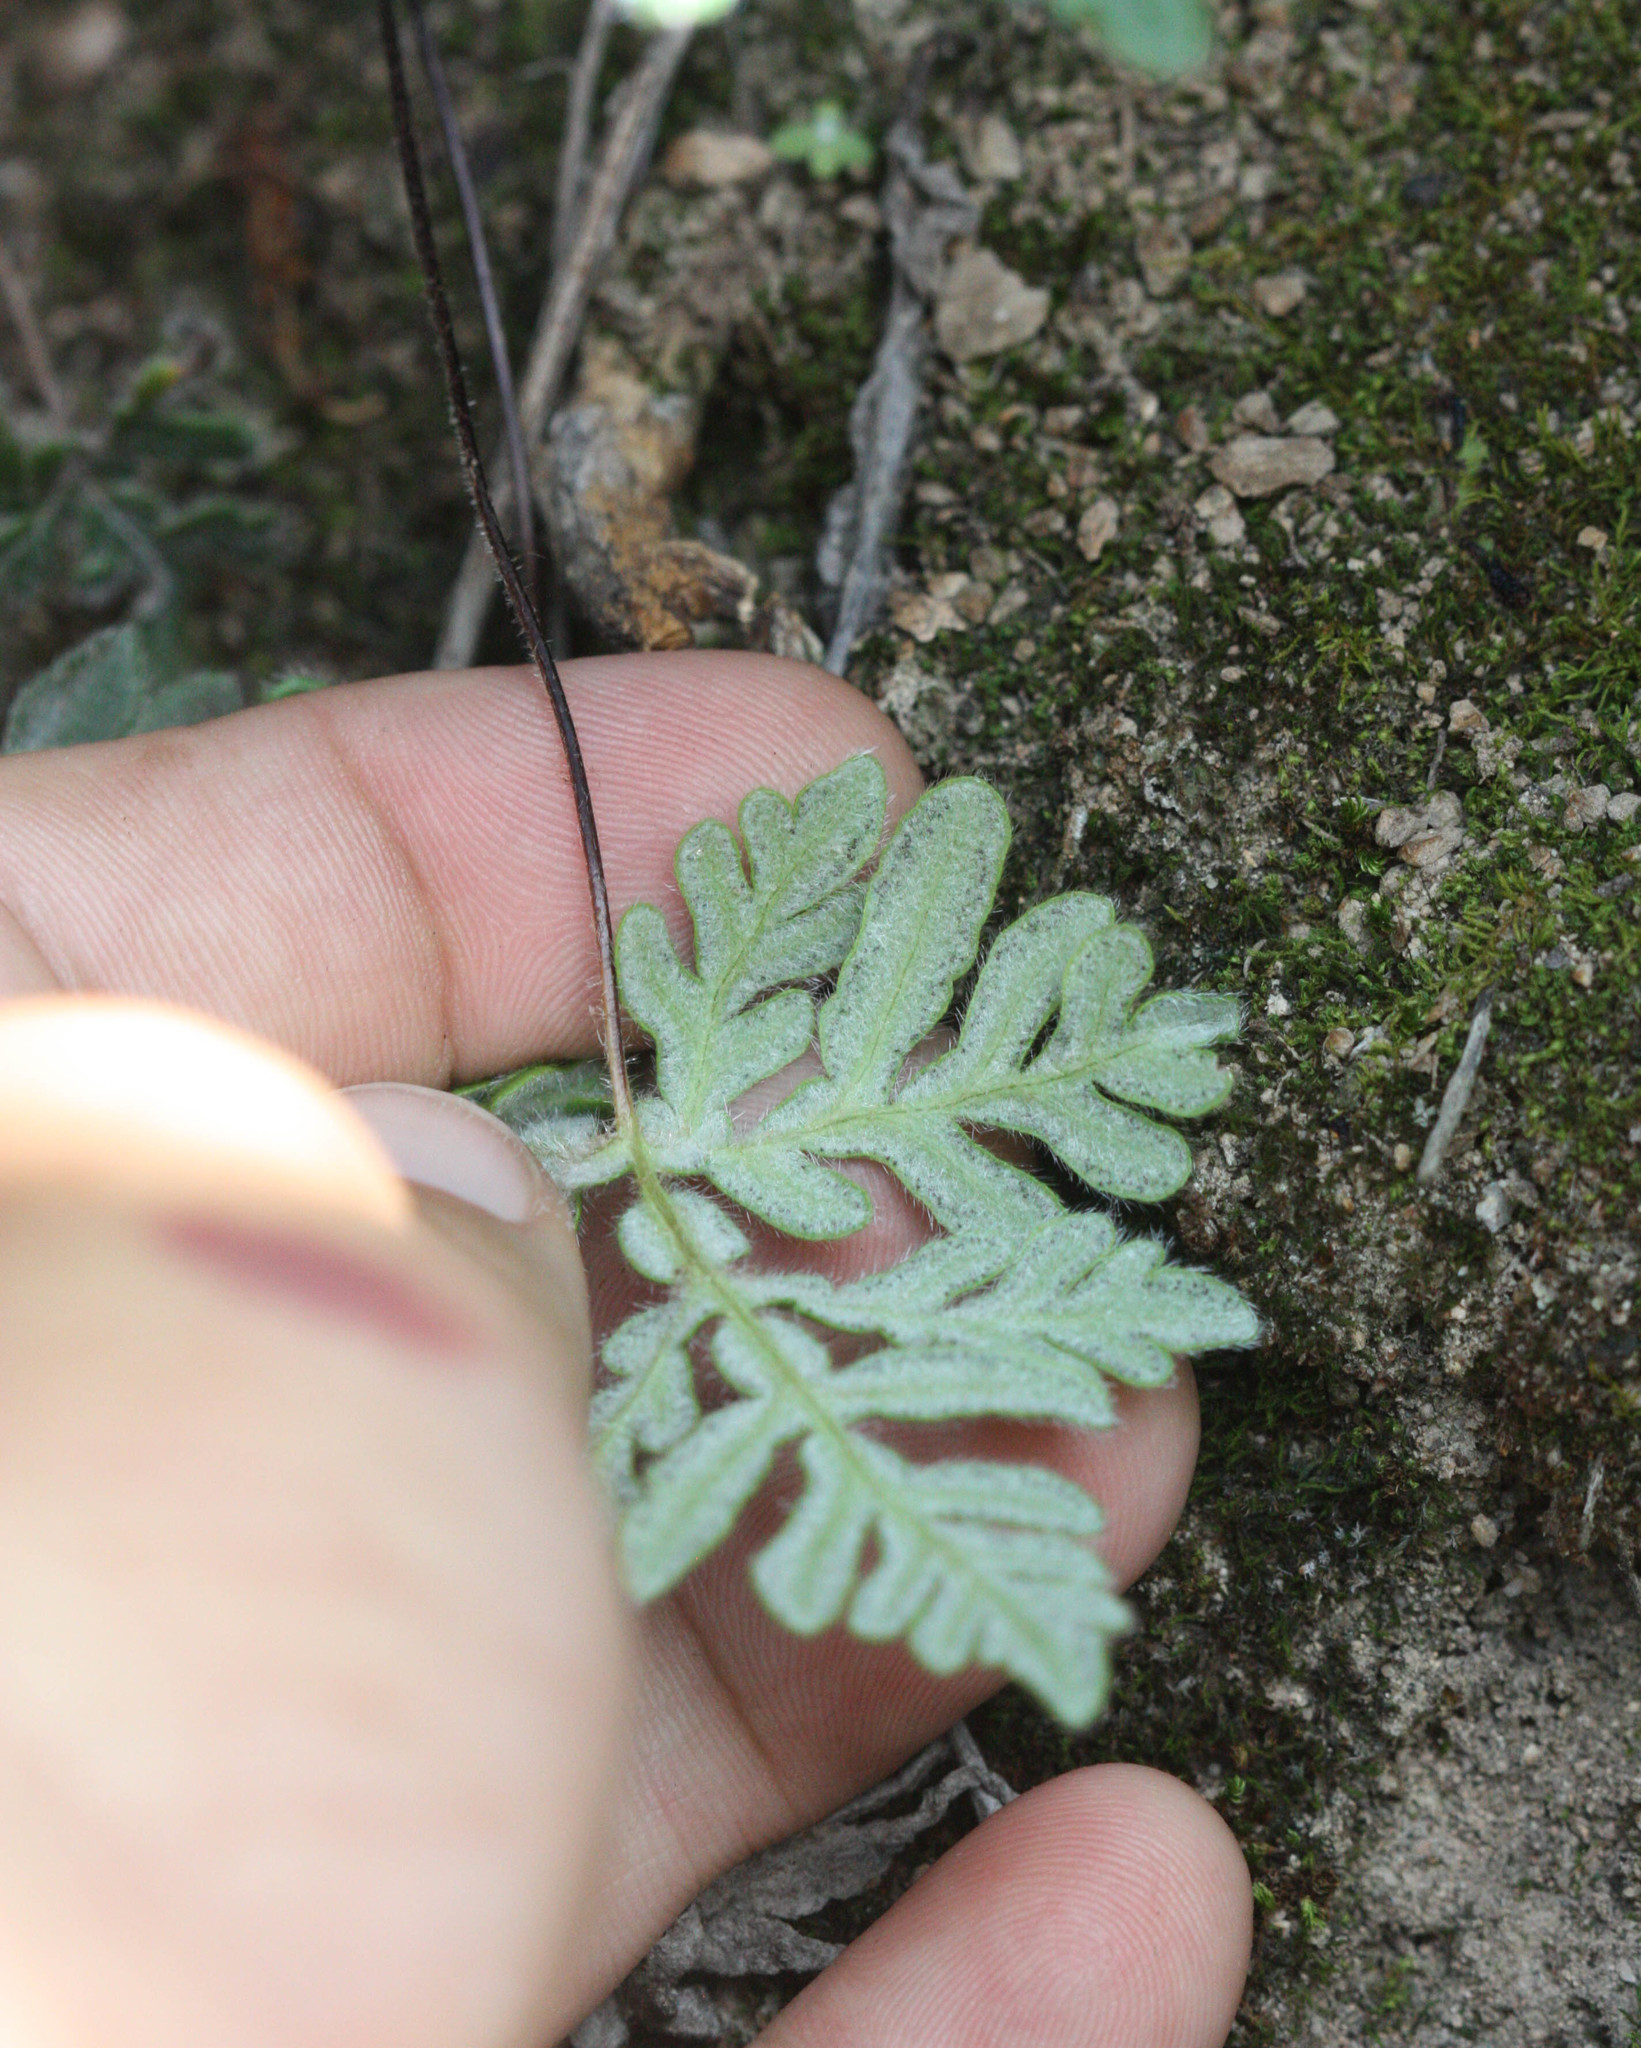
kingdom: Plantae
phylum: Tracheophyta
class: Polypodiopsida
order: Polypodiales
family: Pteridaceae
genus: Bommeria
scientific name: Bommeria hispida
